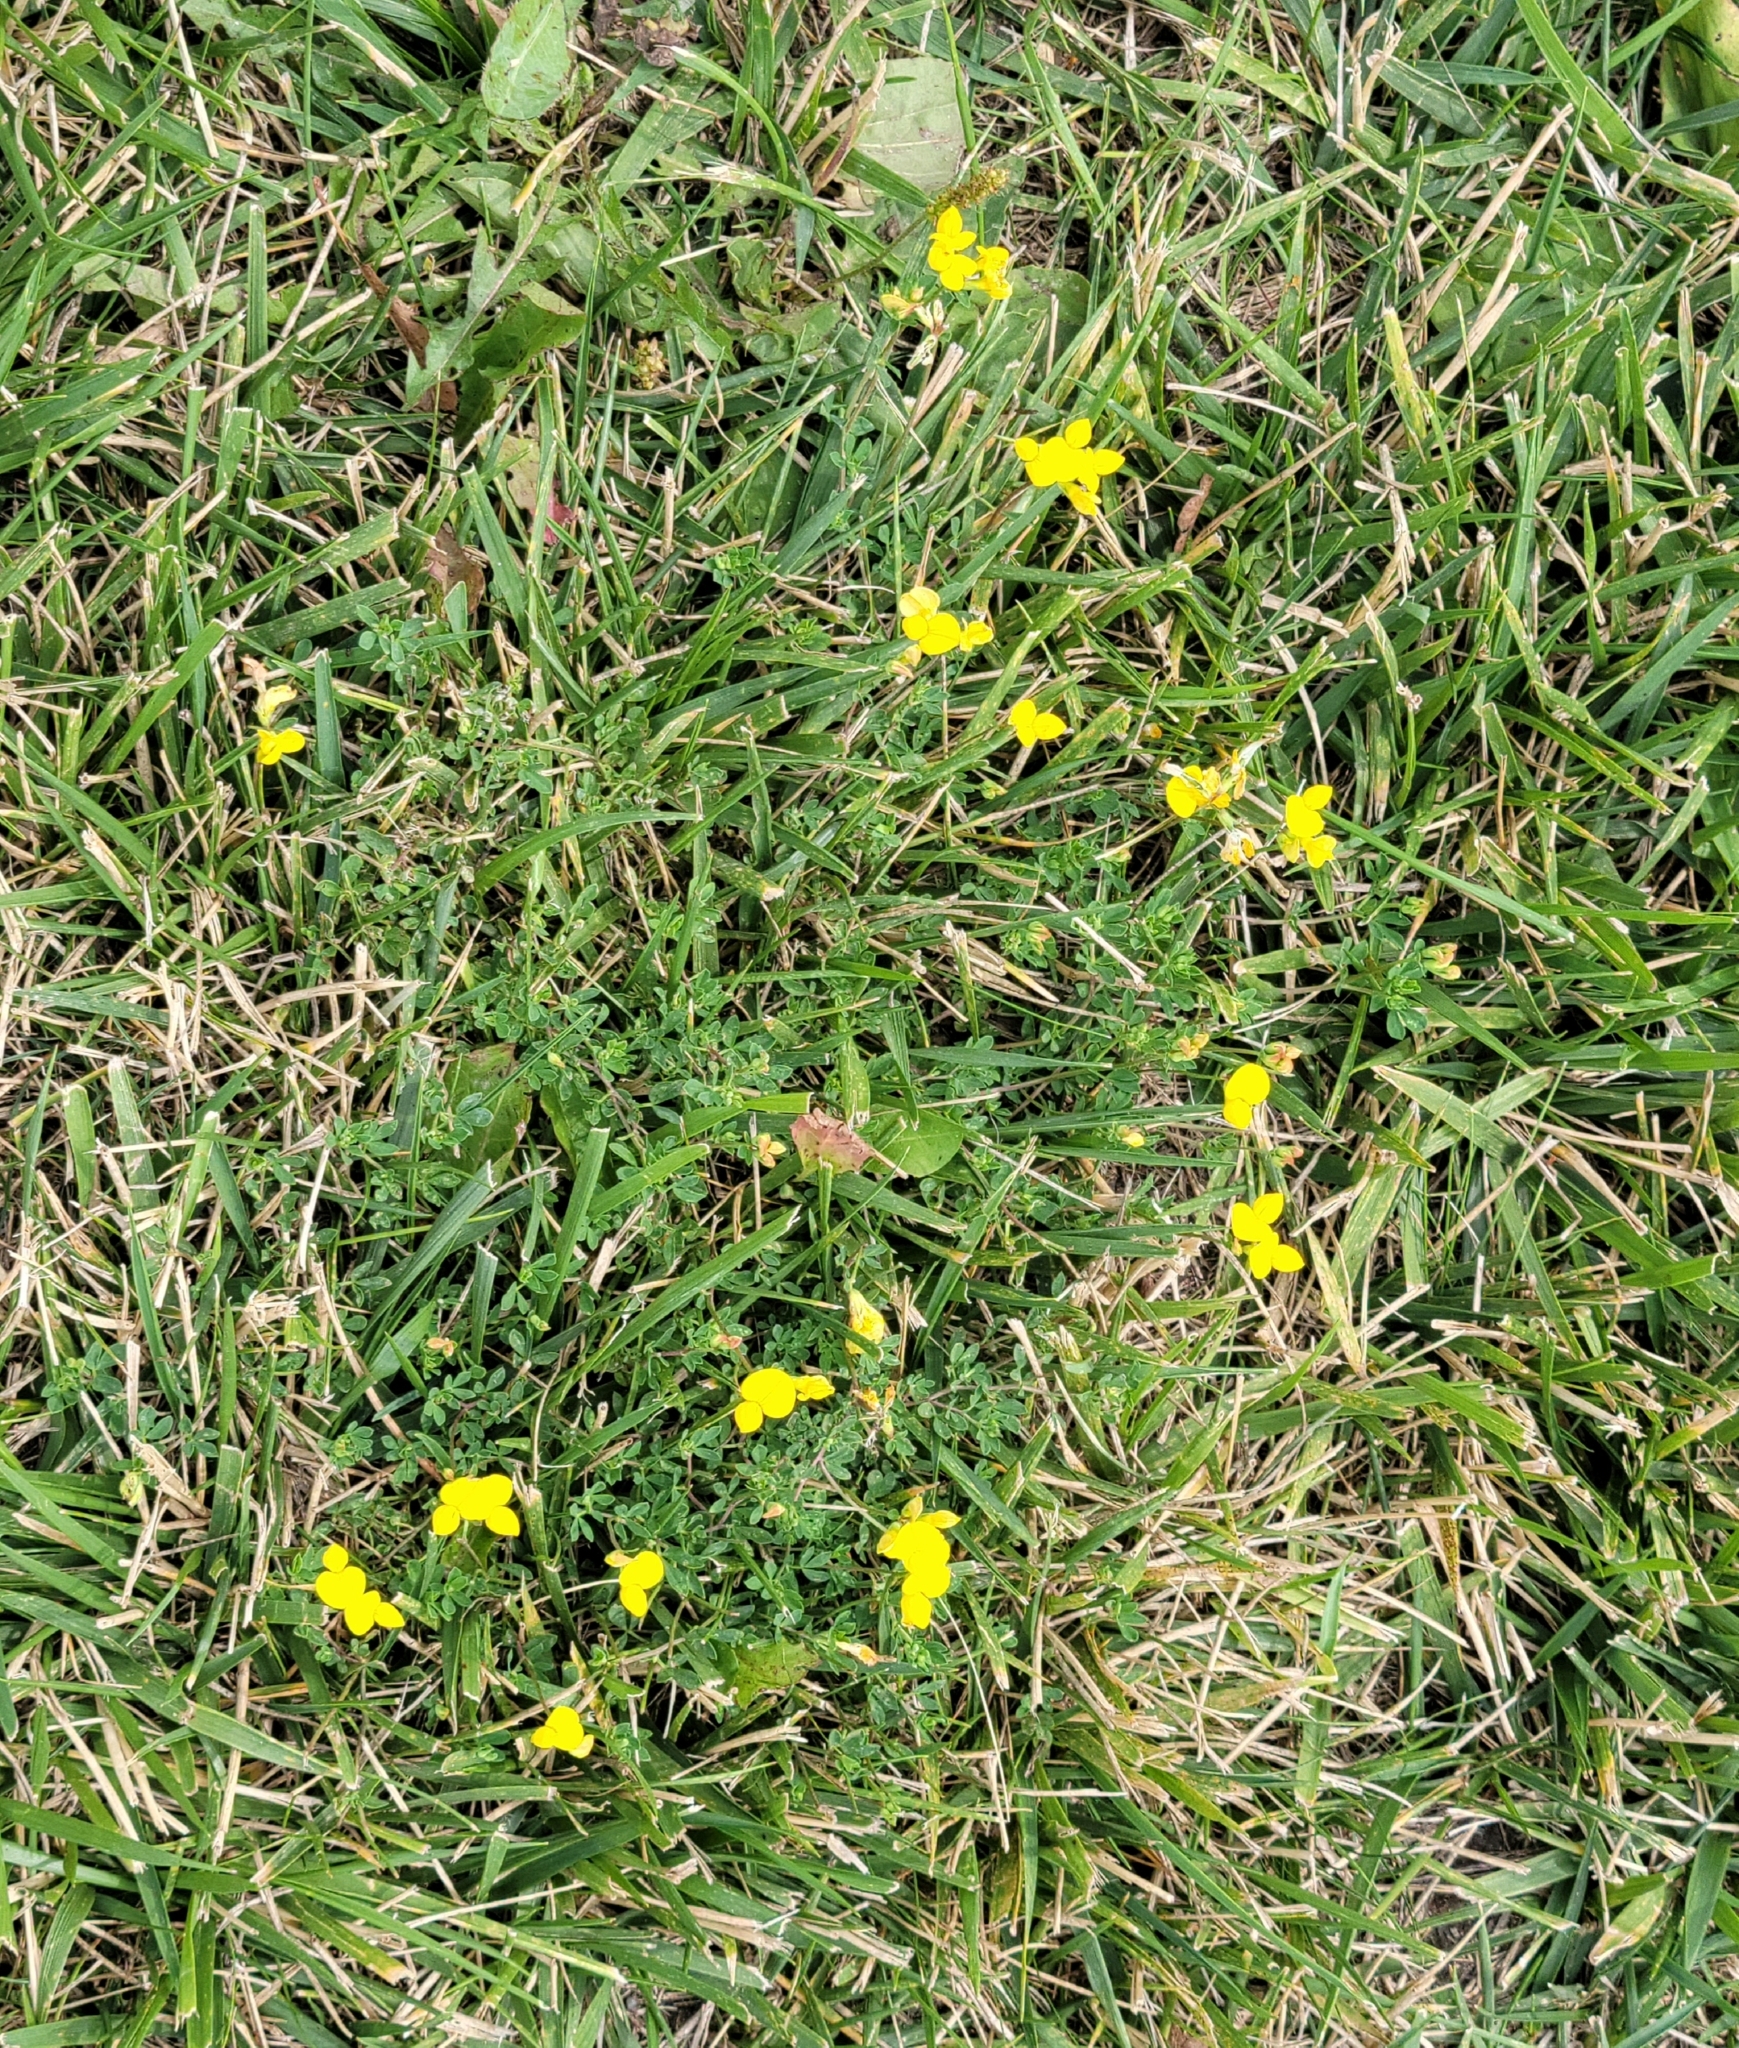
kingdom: Plantae
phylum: Tracheophyta
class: Magnoliopsida
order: Fabales
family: Fabaceae
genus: Lotus
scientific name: Lotus corniculatus
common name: Common bird's-foot-trefoil
